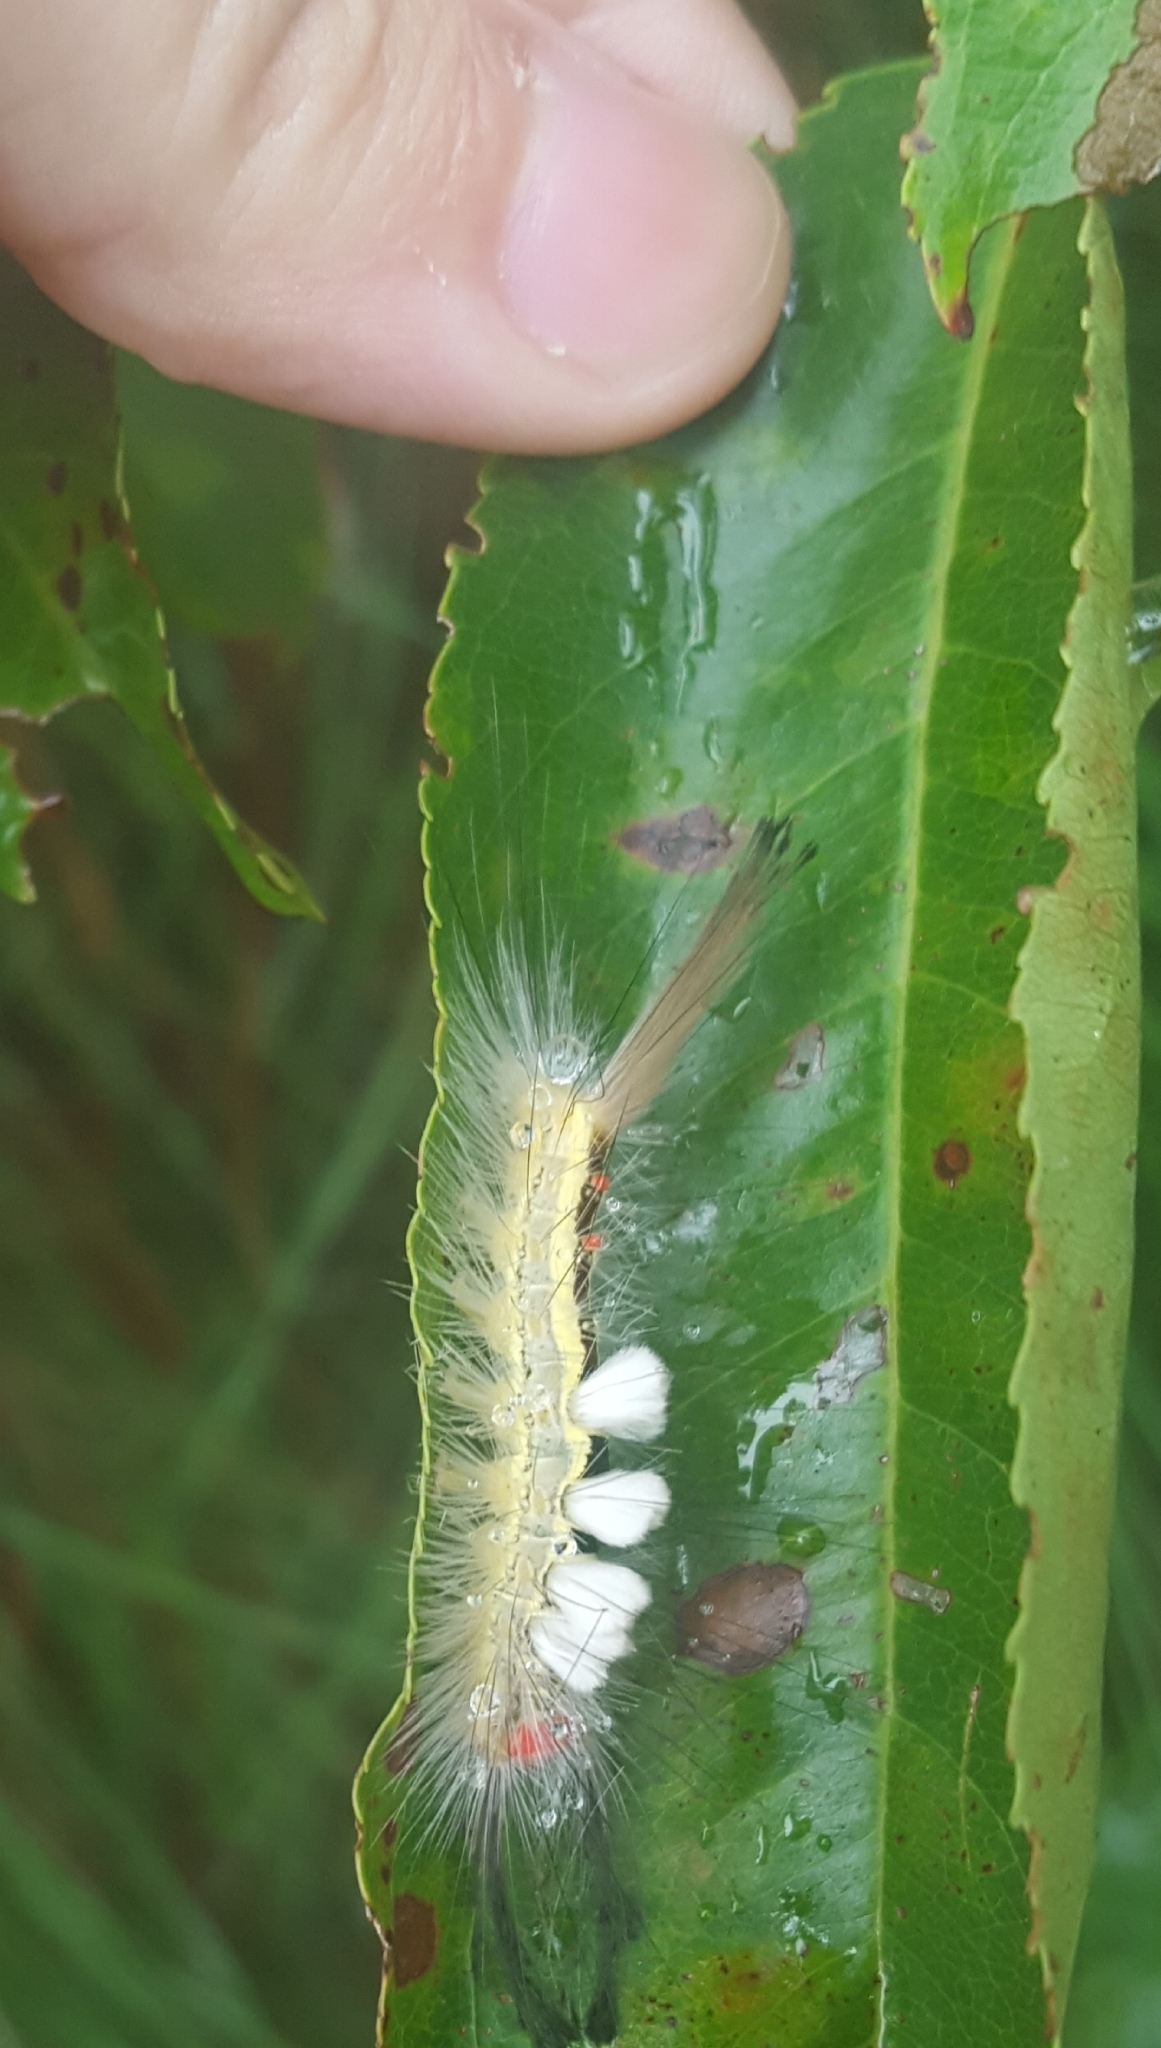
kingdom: Animalia
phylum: Arthropoda
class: Insecta
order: Lepidoptera
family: Erebidae
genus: Orgyia
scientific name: Orgyia leucostigma
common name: White-marked tussock moth
